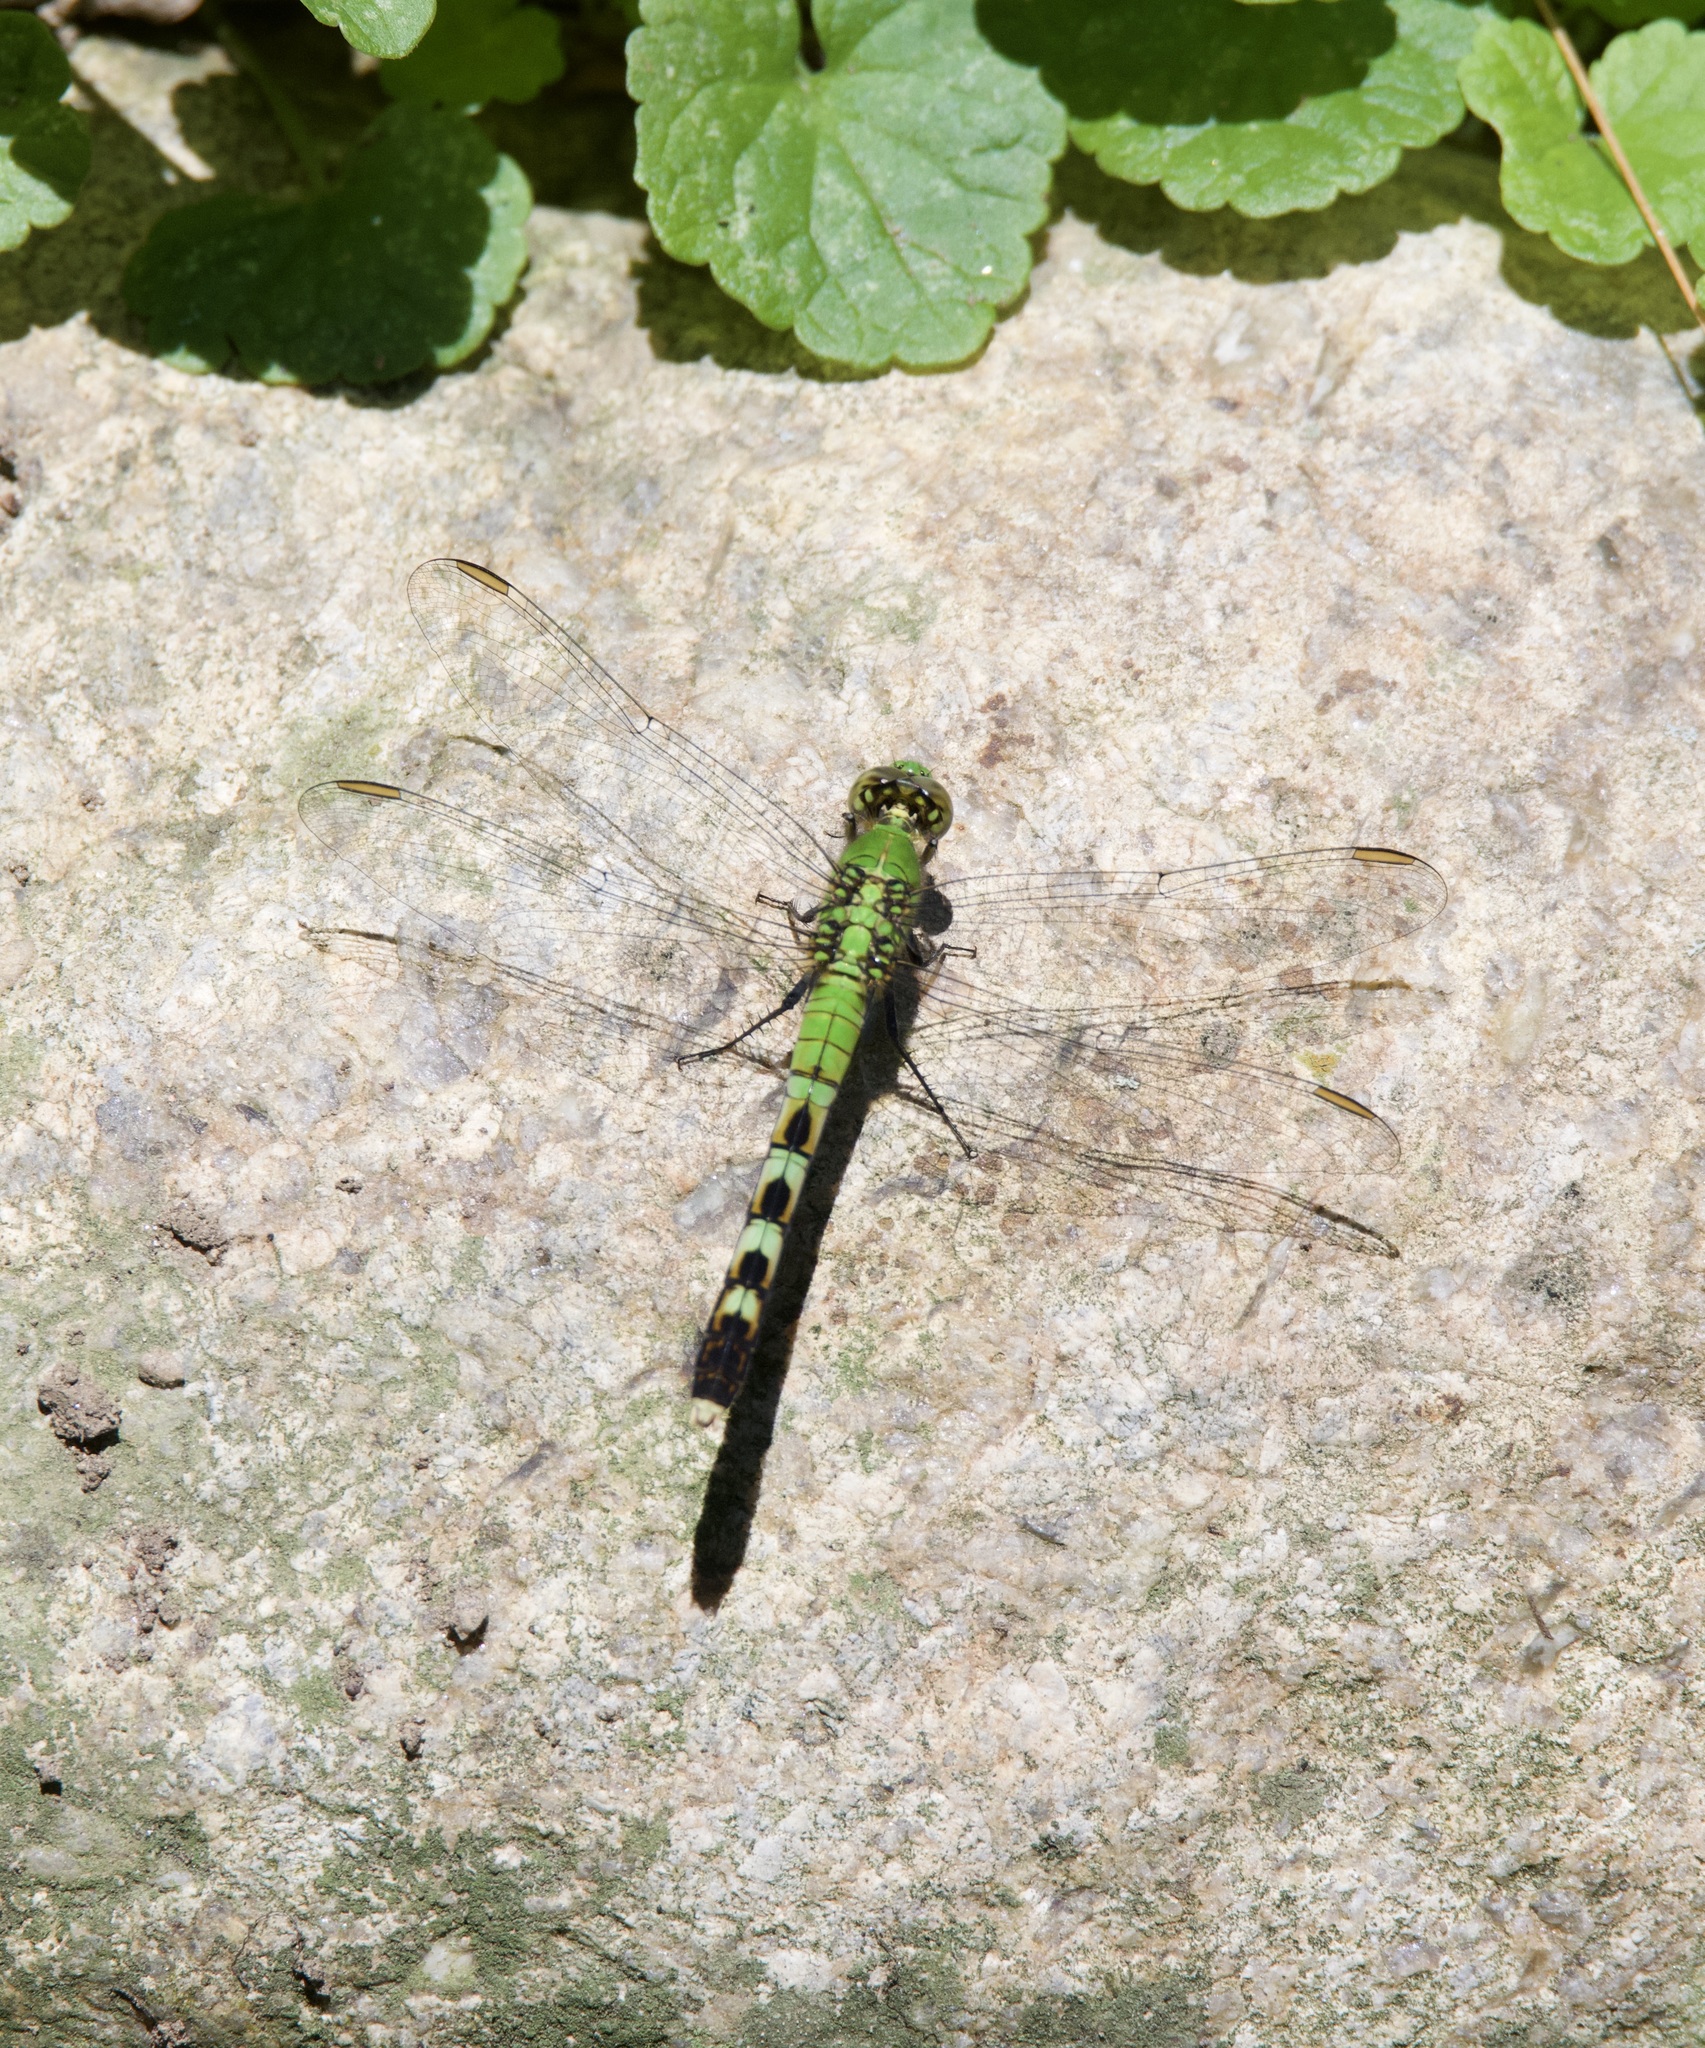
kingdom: Animalia
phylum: Arthropoda
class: Insecta
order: Odonata
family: Libellulidae
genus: Erythemis
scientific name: Erythemis simplicicollis
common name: Eastern pondhawk
